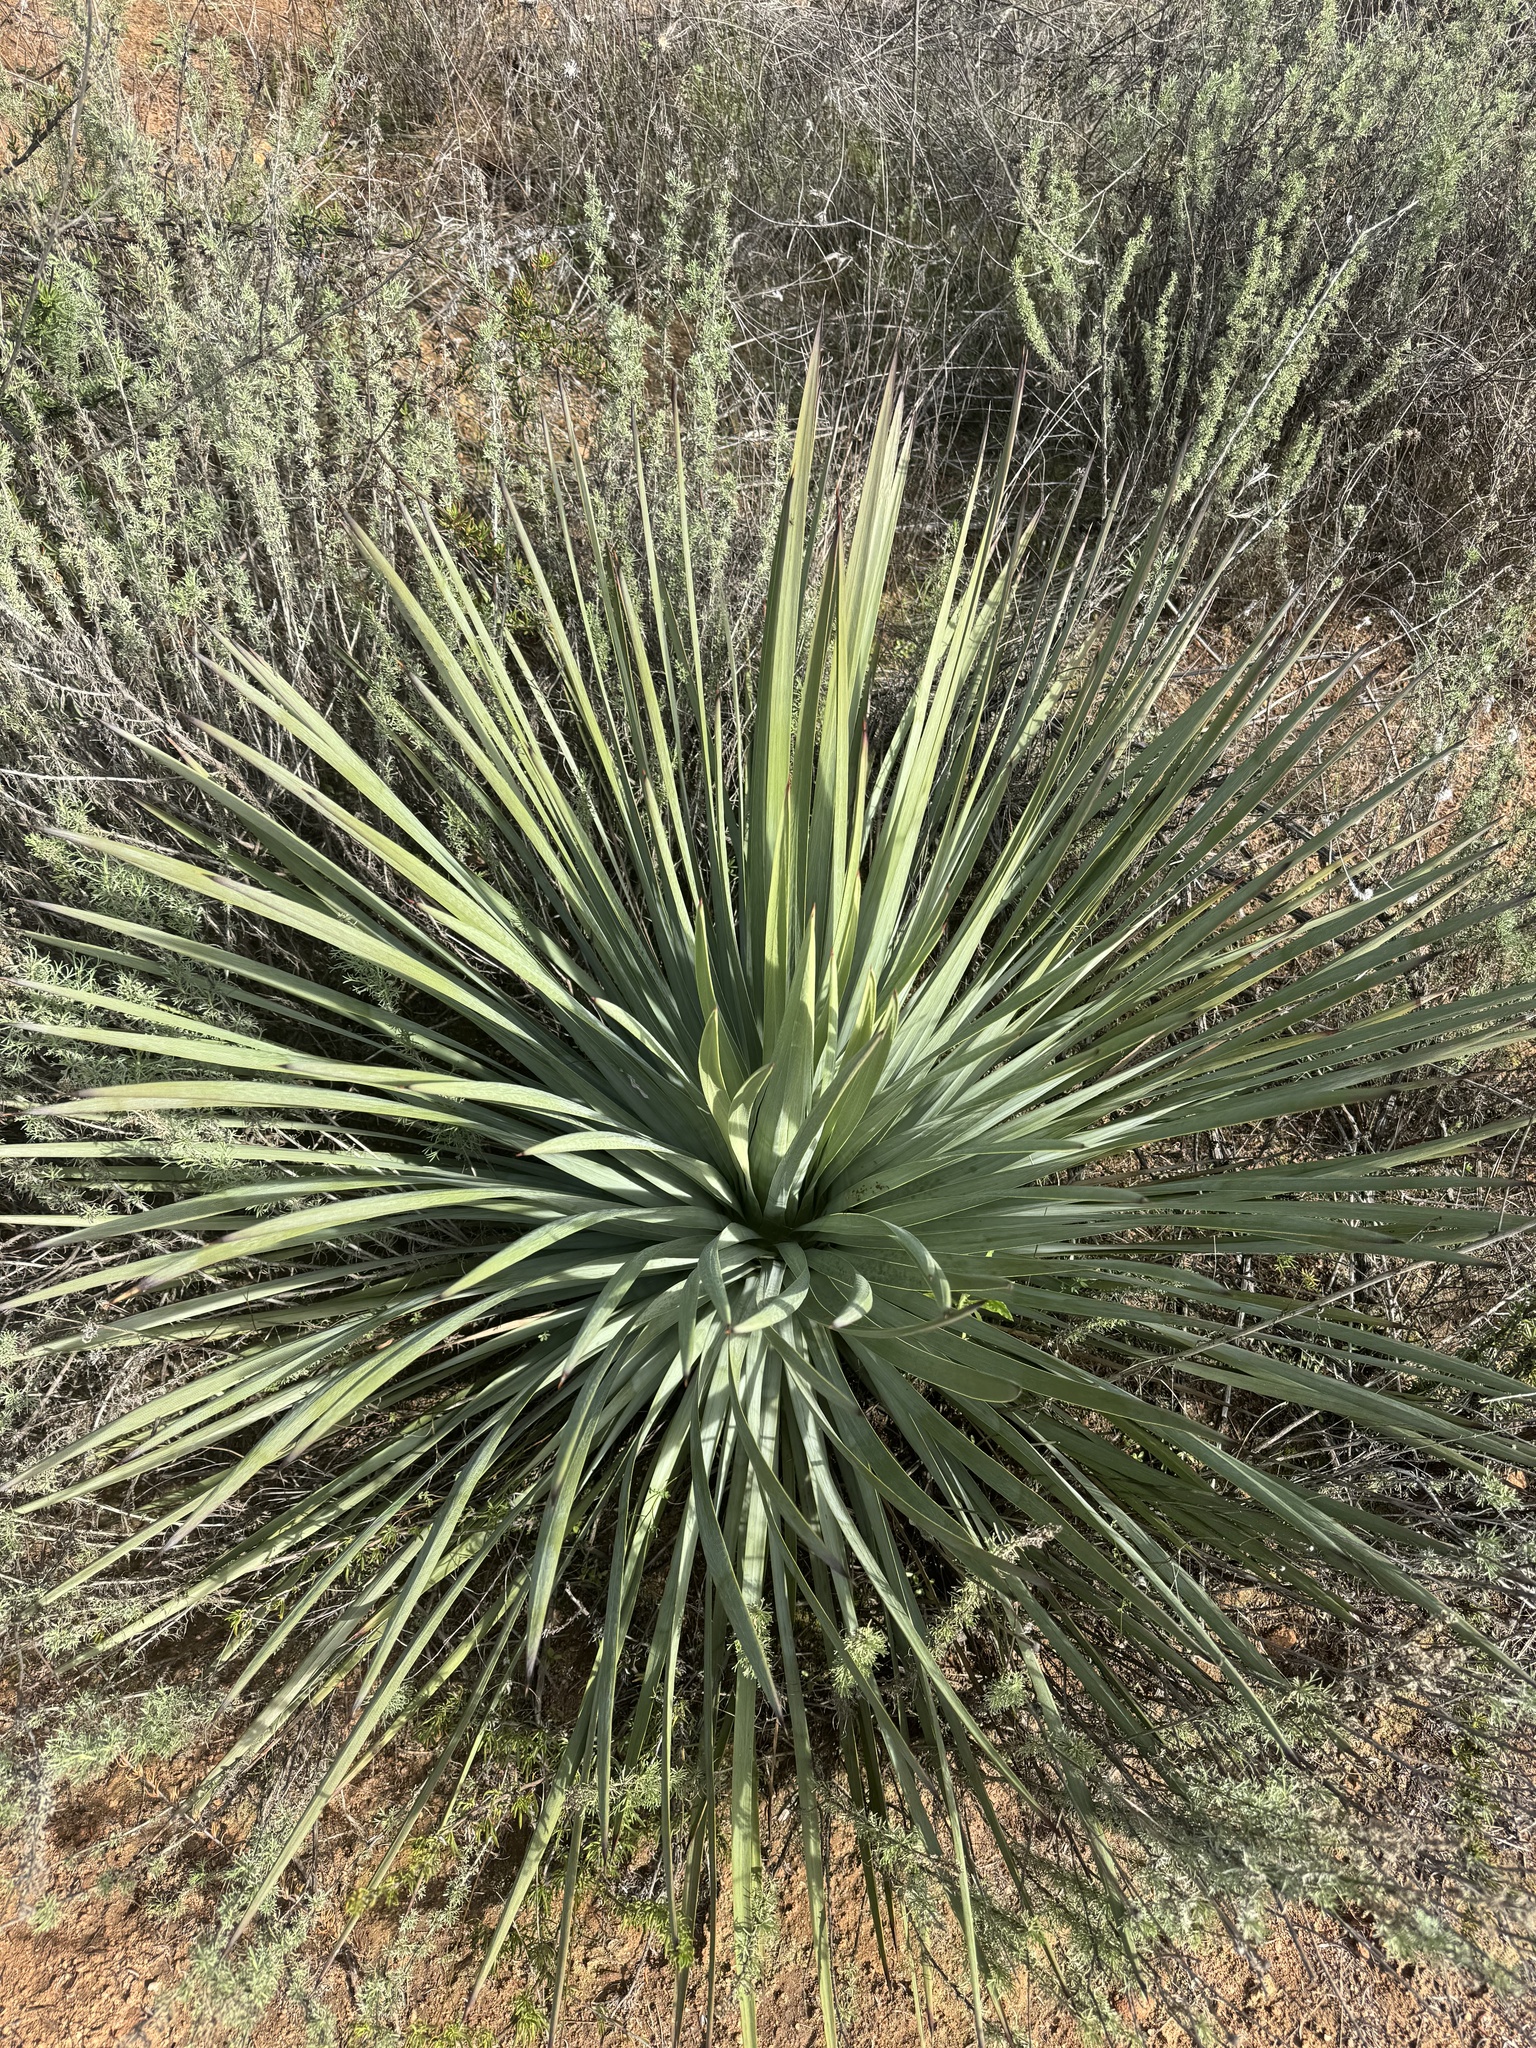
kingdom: Plantae
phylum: Tracheophyta
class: Liliopsida
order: Asparagales
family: Asparagaceae
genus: Hesperoyucca
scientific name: Hesperoyucca whipplei
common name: Our lord's-candle
